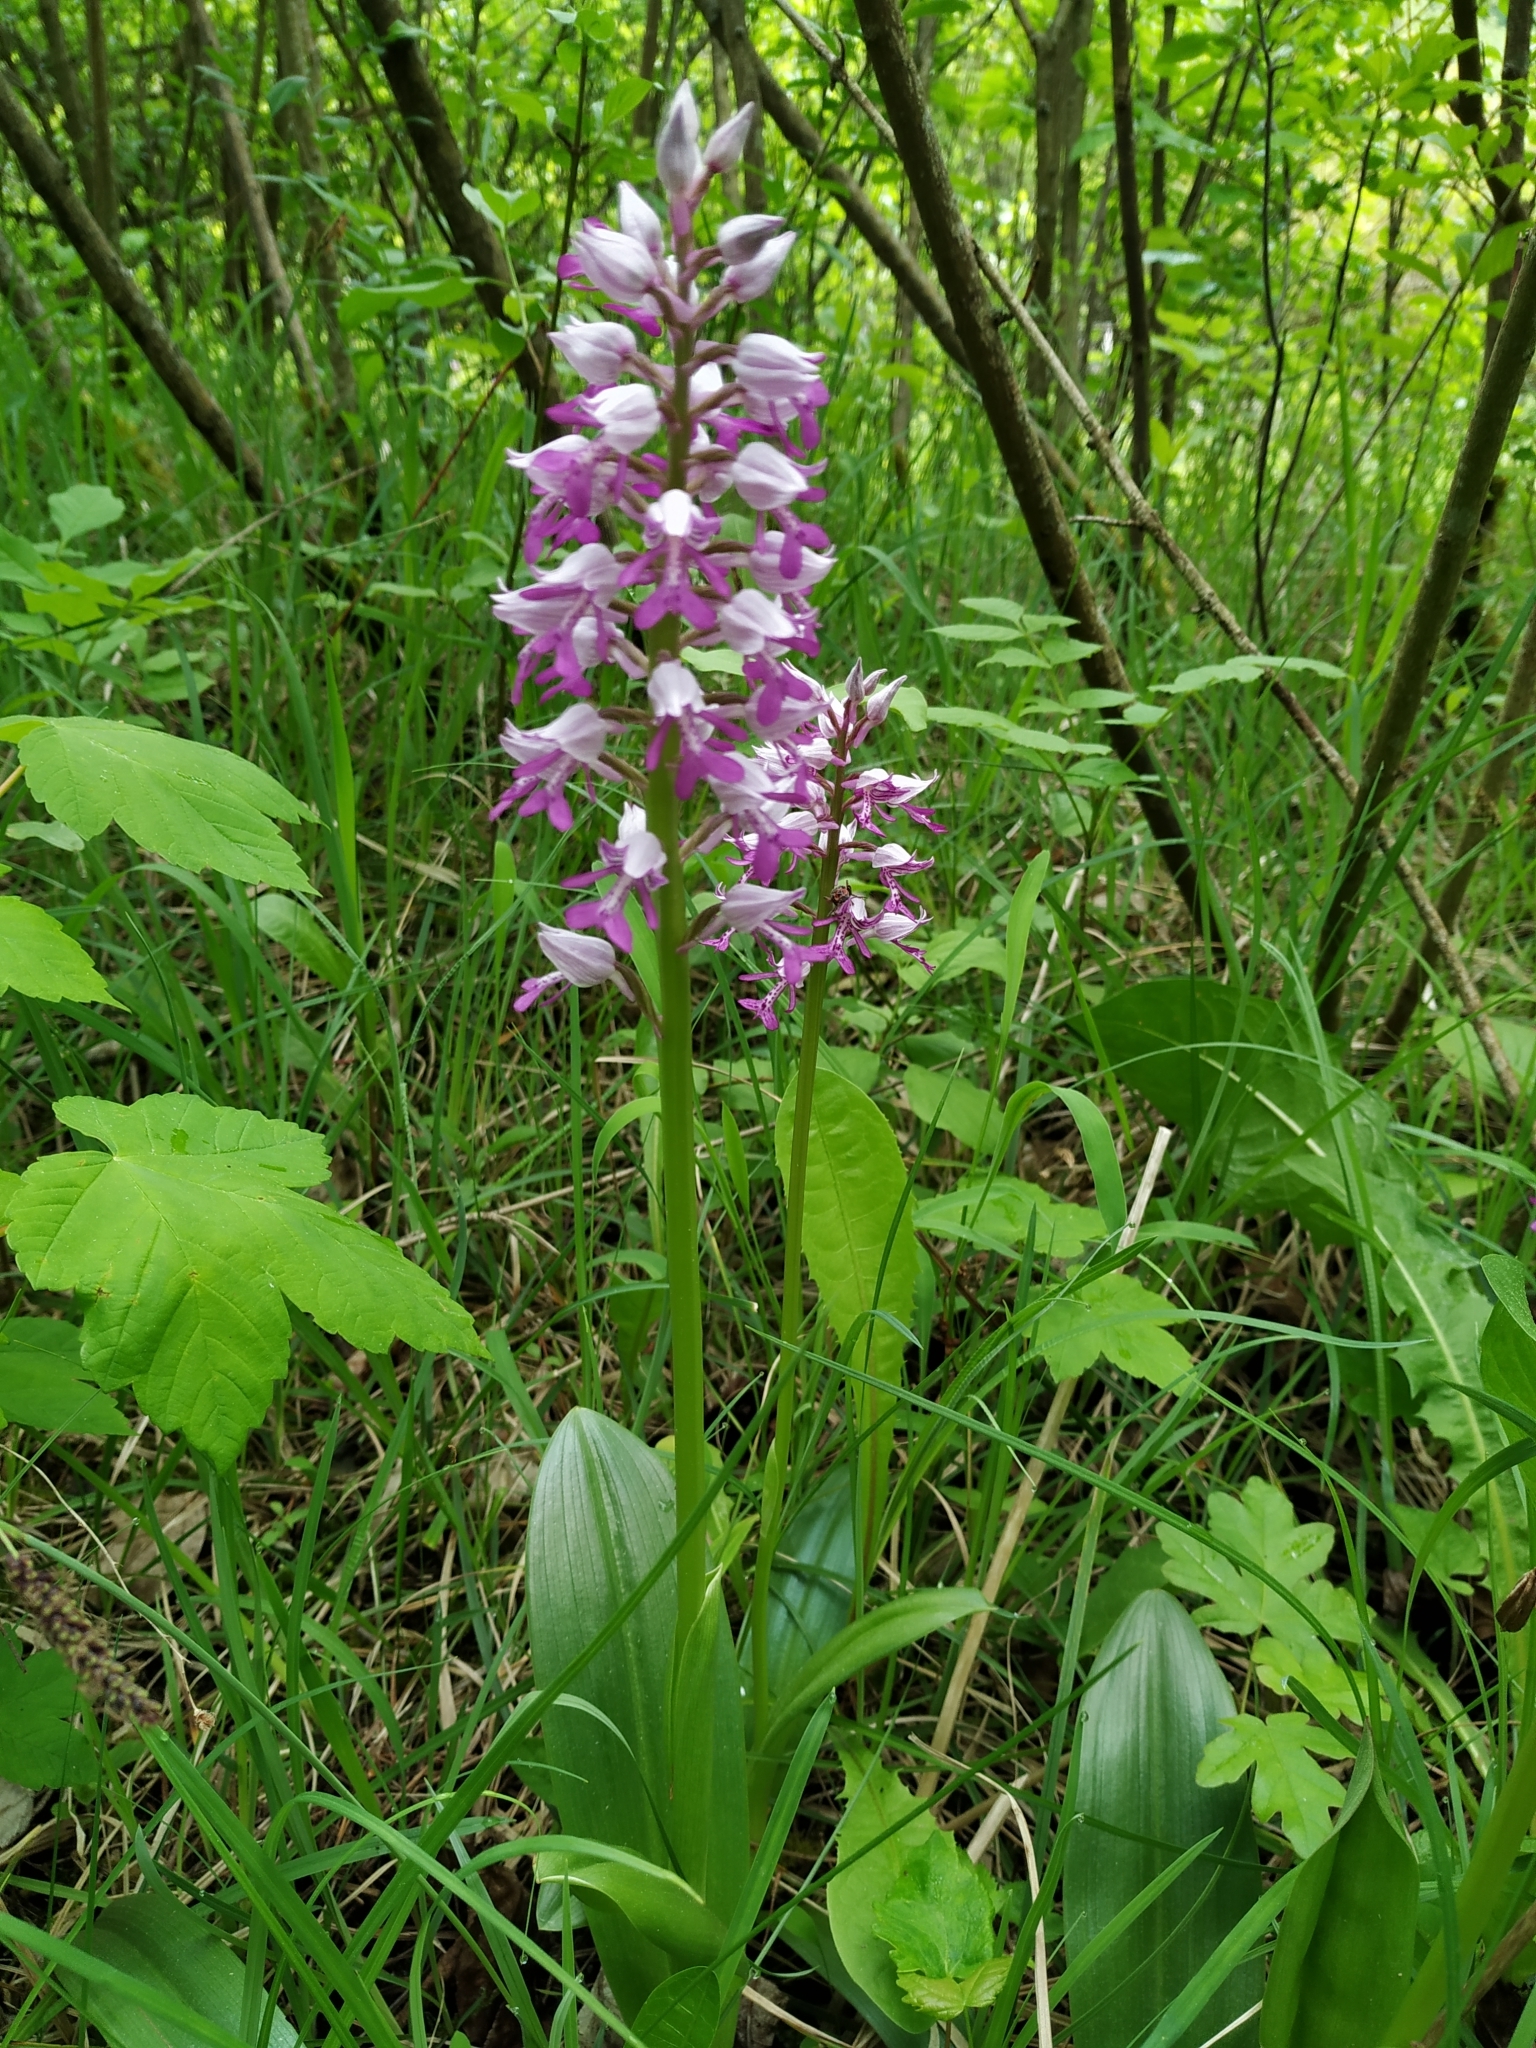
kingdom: Plantae
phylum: Tracheophyta
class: Liliopsida
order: Asparagales
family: Orchidaceae
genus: Orchis
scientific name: Orchis militaris
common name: Military orchid
